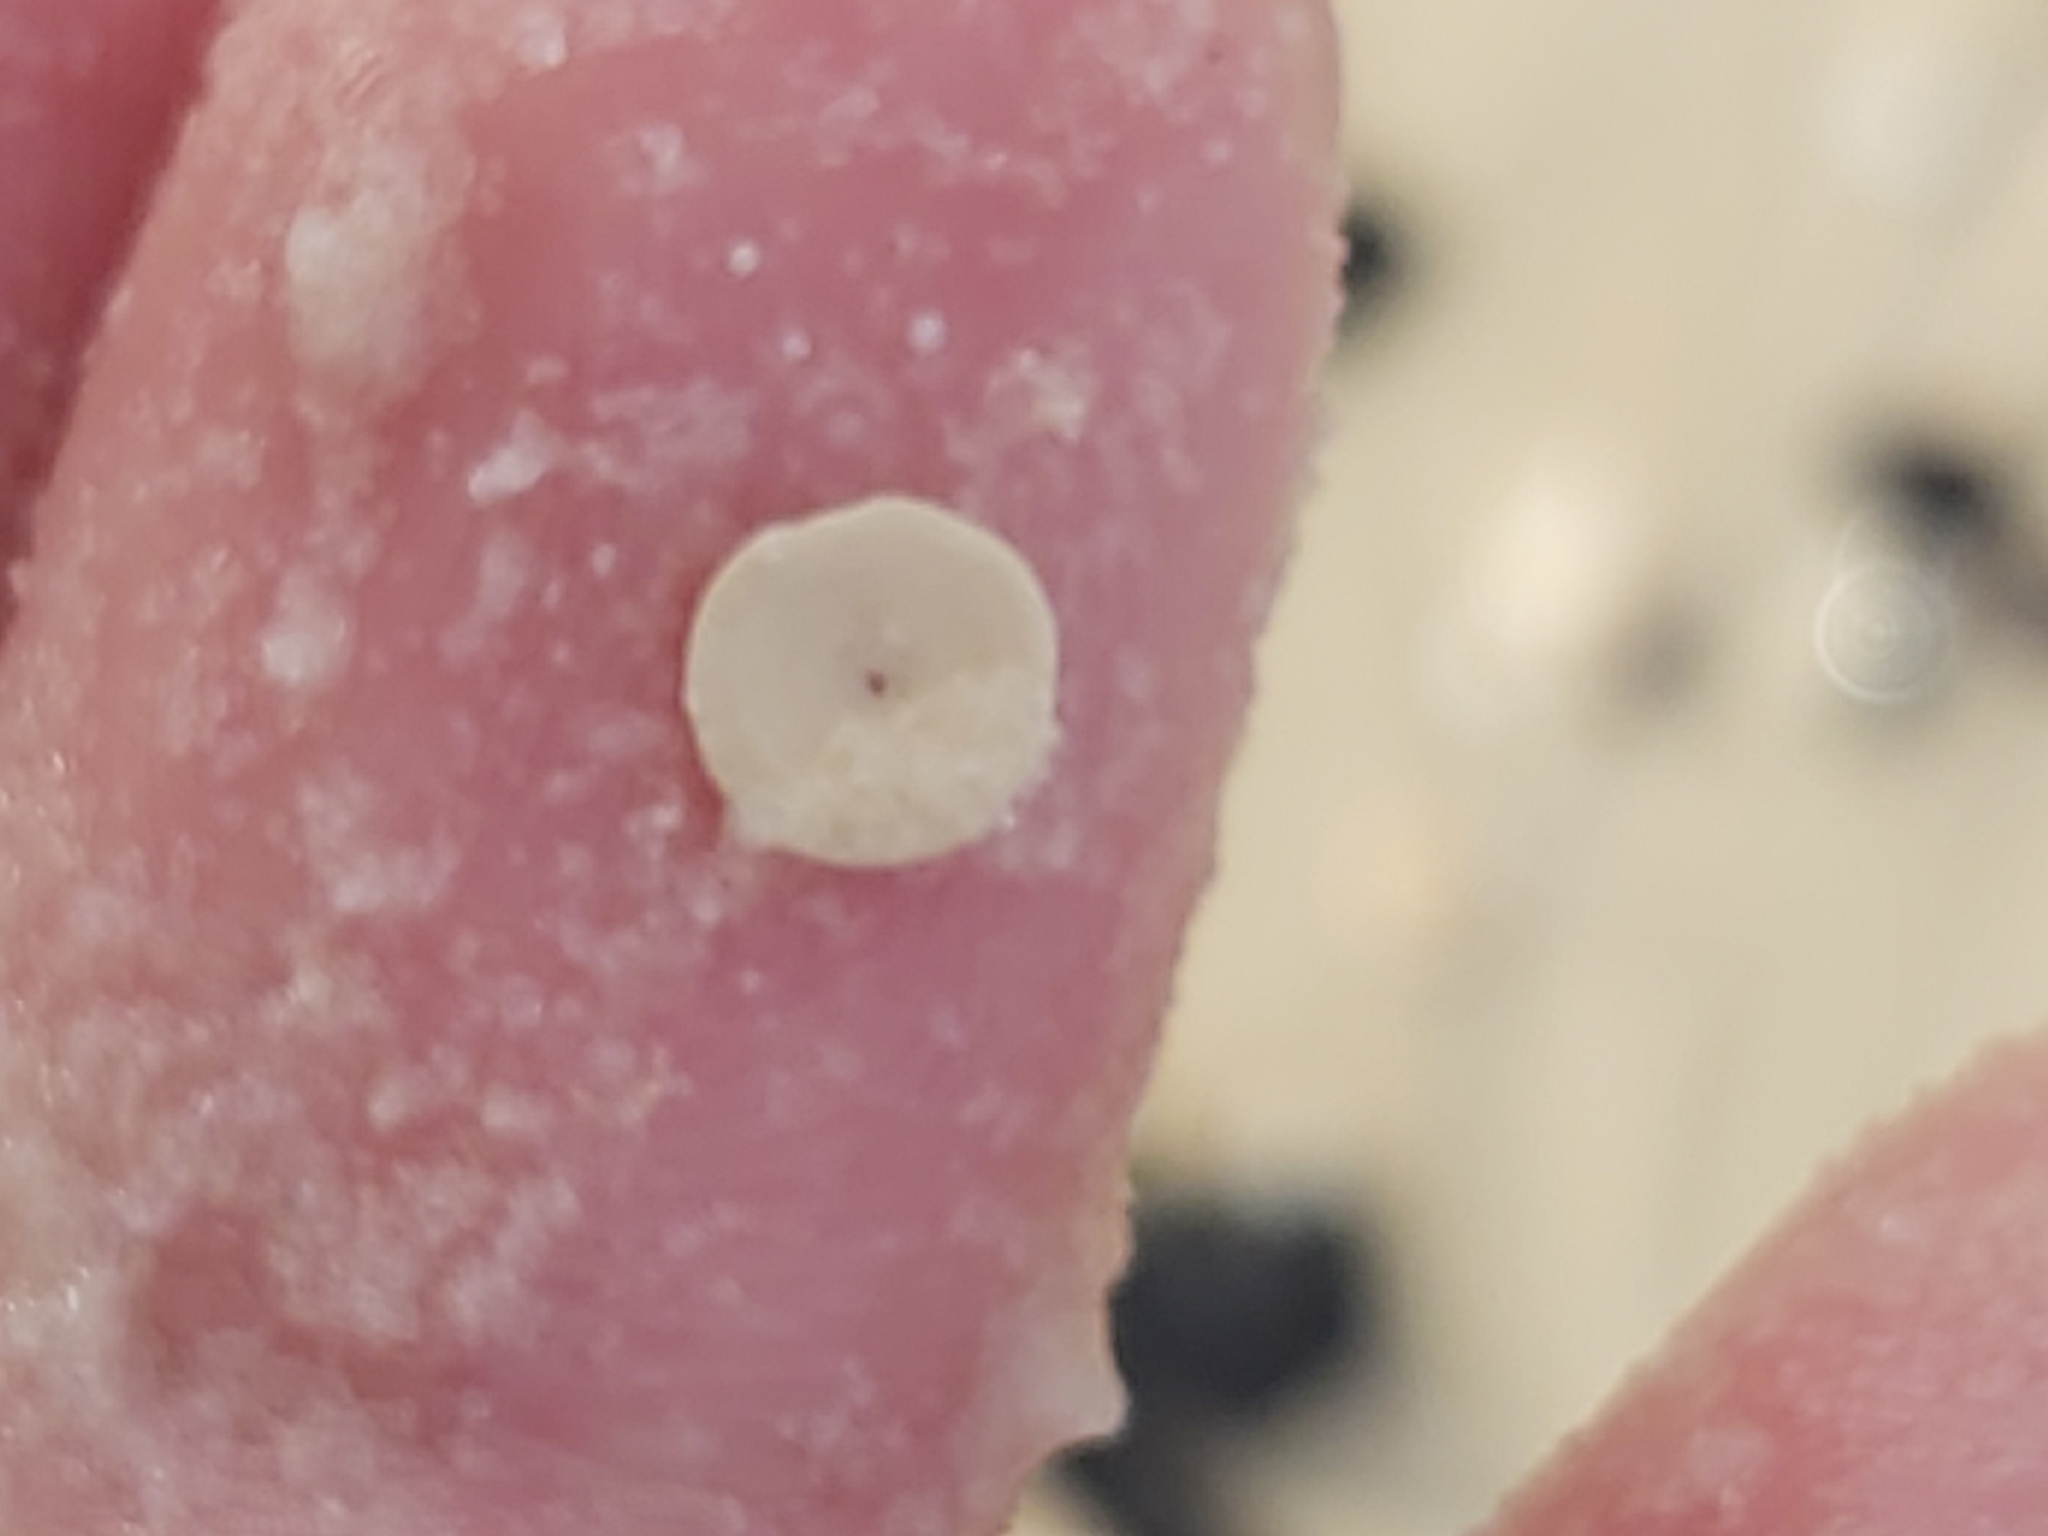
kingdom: Chromista
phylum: Foraminifera
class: Tubothalamea
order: Miliolida
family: Soritidae
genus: Marginopora
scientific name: Marginopora vertebralis
